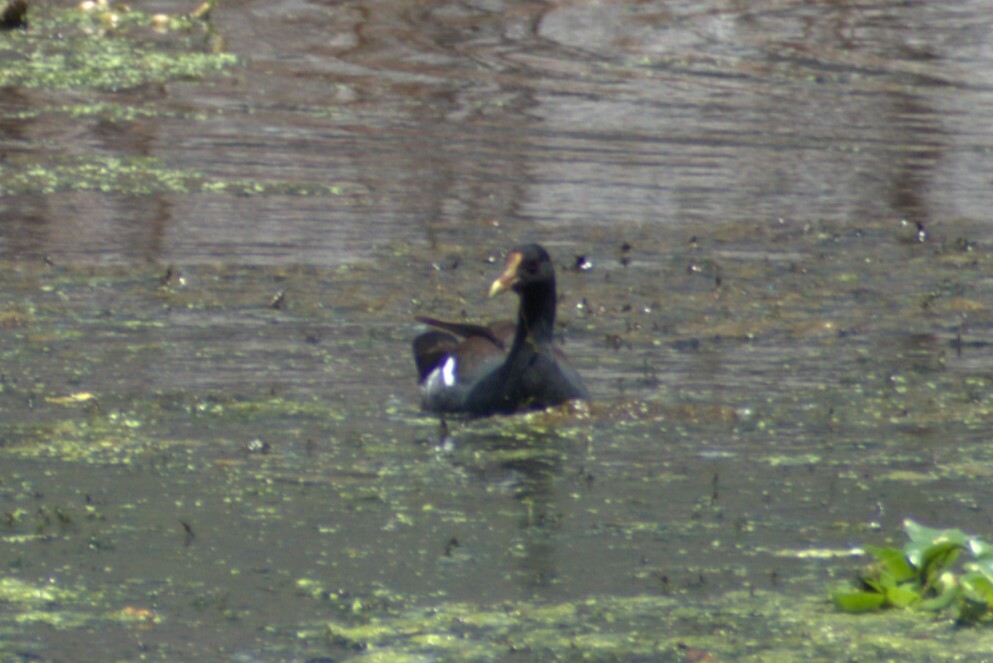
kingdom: Animalia
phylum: Chordata
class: Aves
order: Gruiformes
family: Rallidae
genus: Gallinula
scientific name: Gallinula chloropus
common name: Common moorhen
